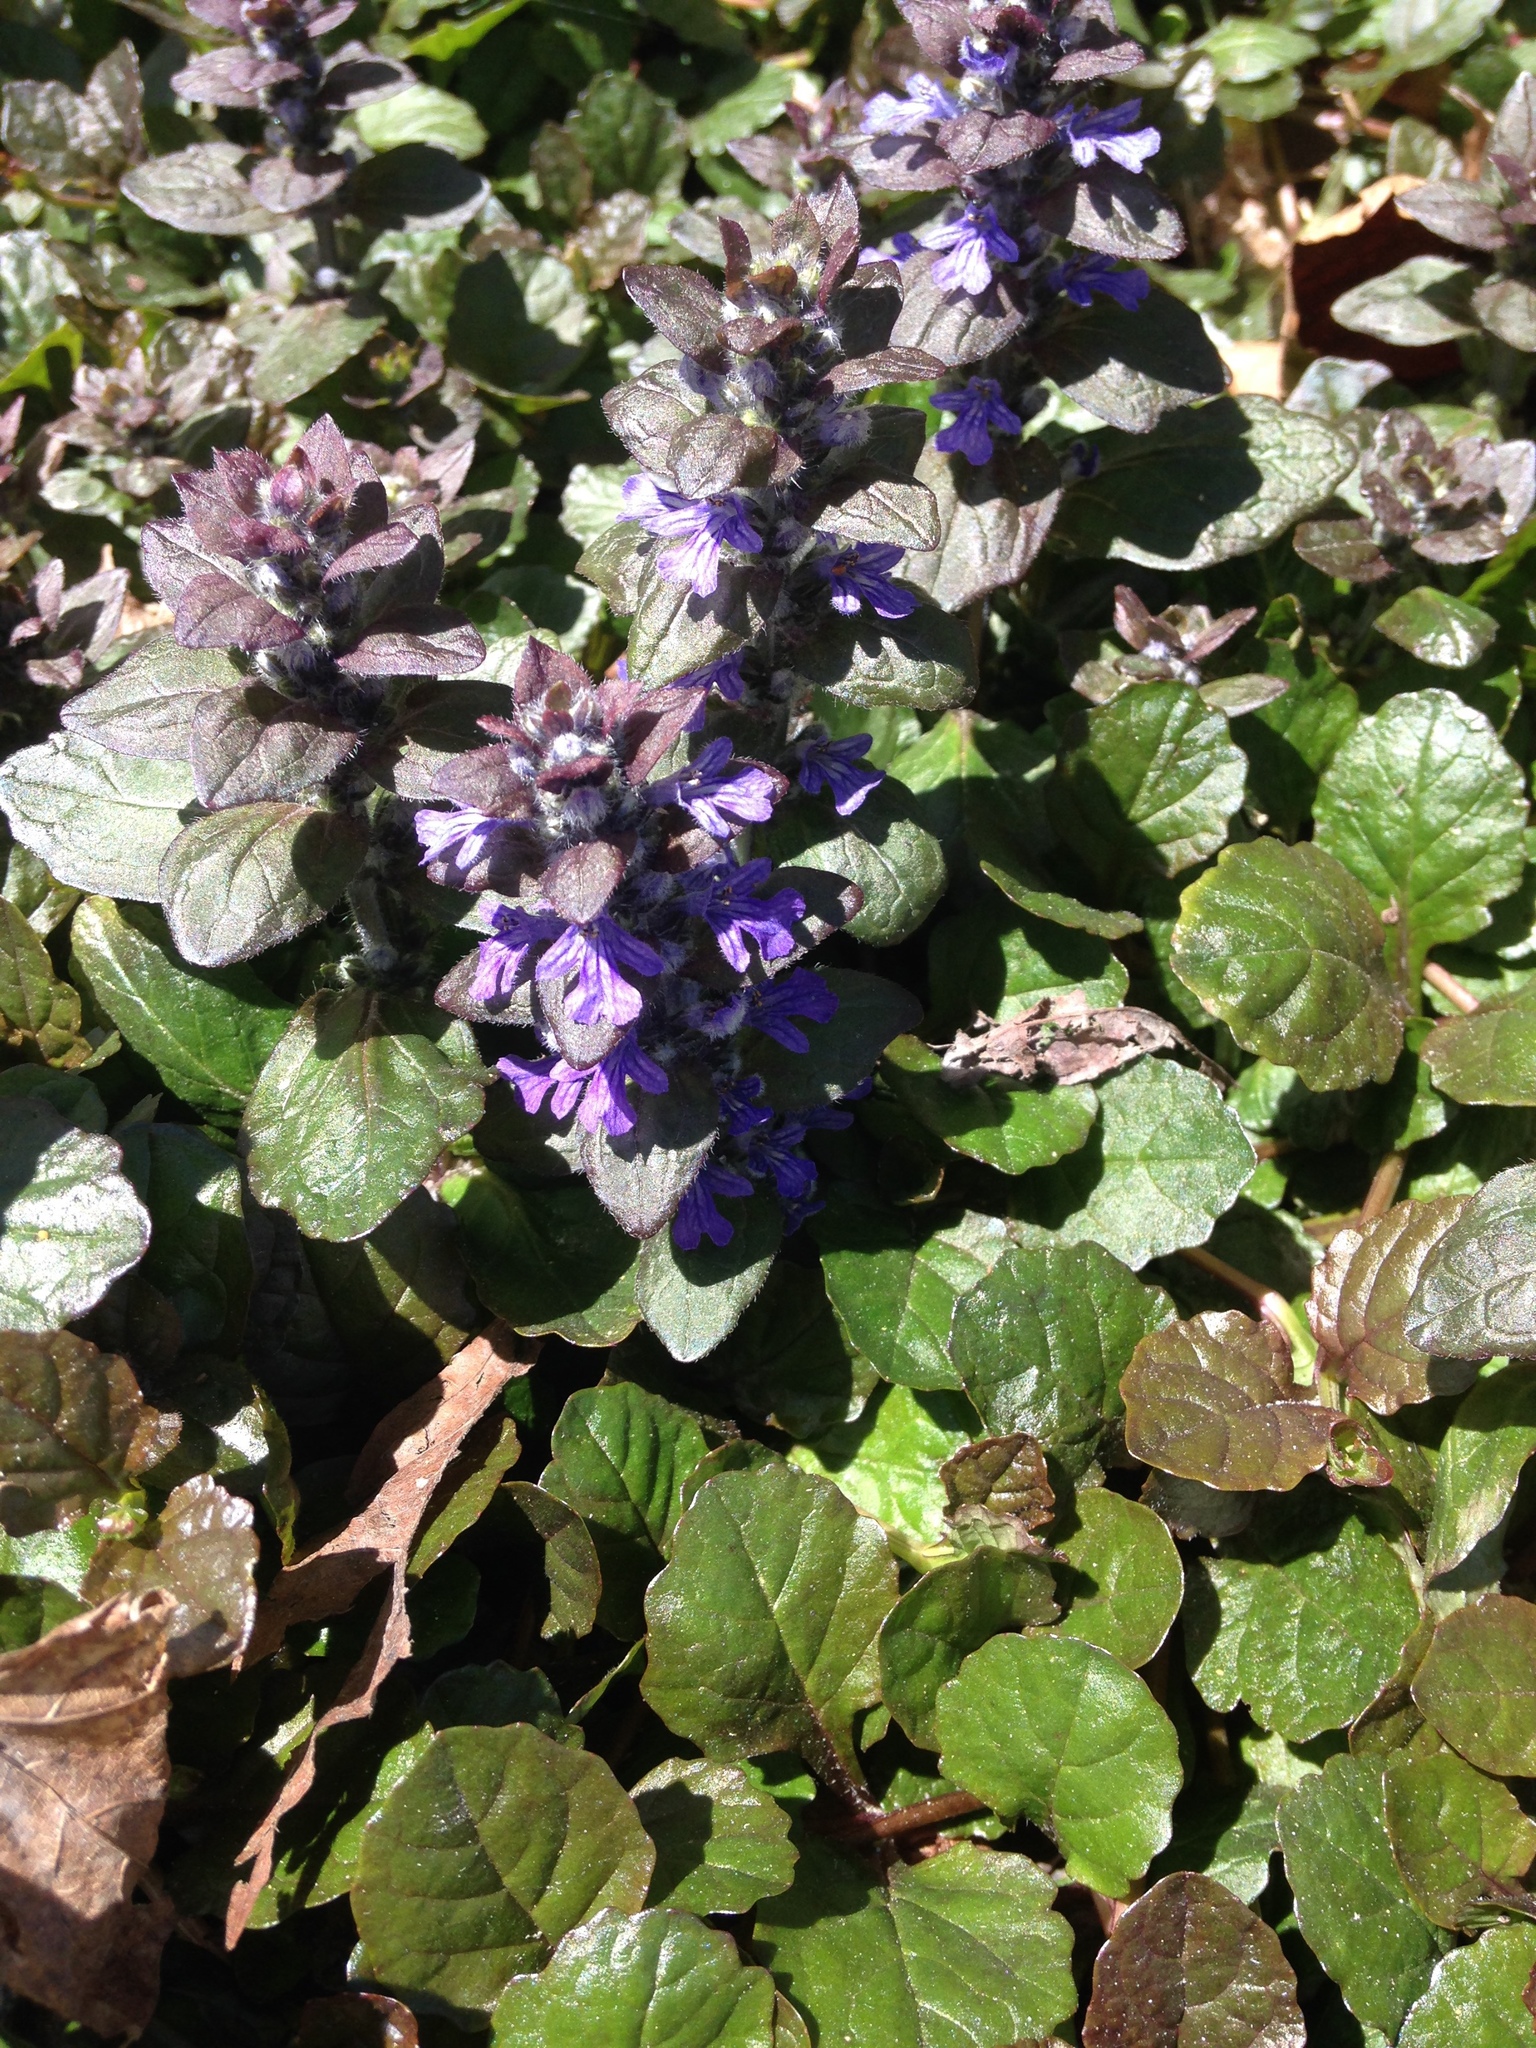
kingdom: Plantae
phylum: Tracheophyta
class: Magnoliopsida
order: Lamiales
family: Lamiaceae
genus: Ajuga
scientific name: Ajuga reptans
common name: Bugle
